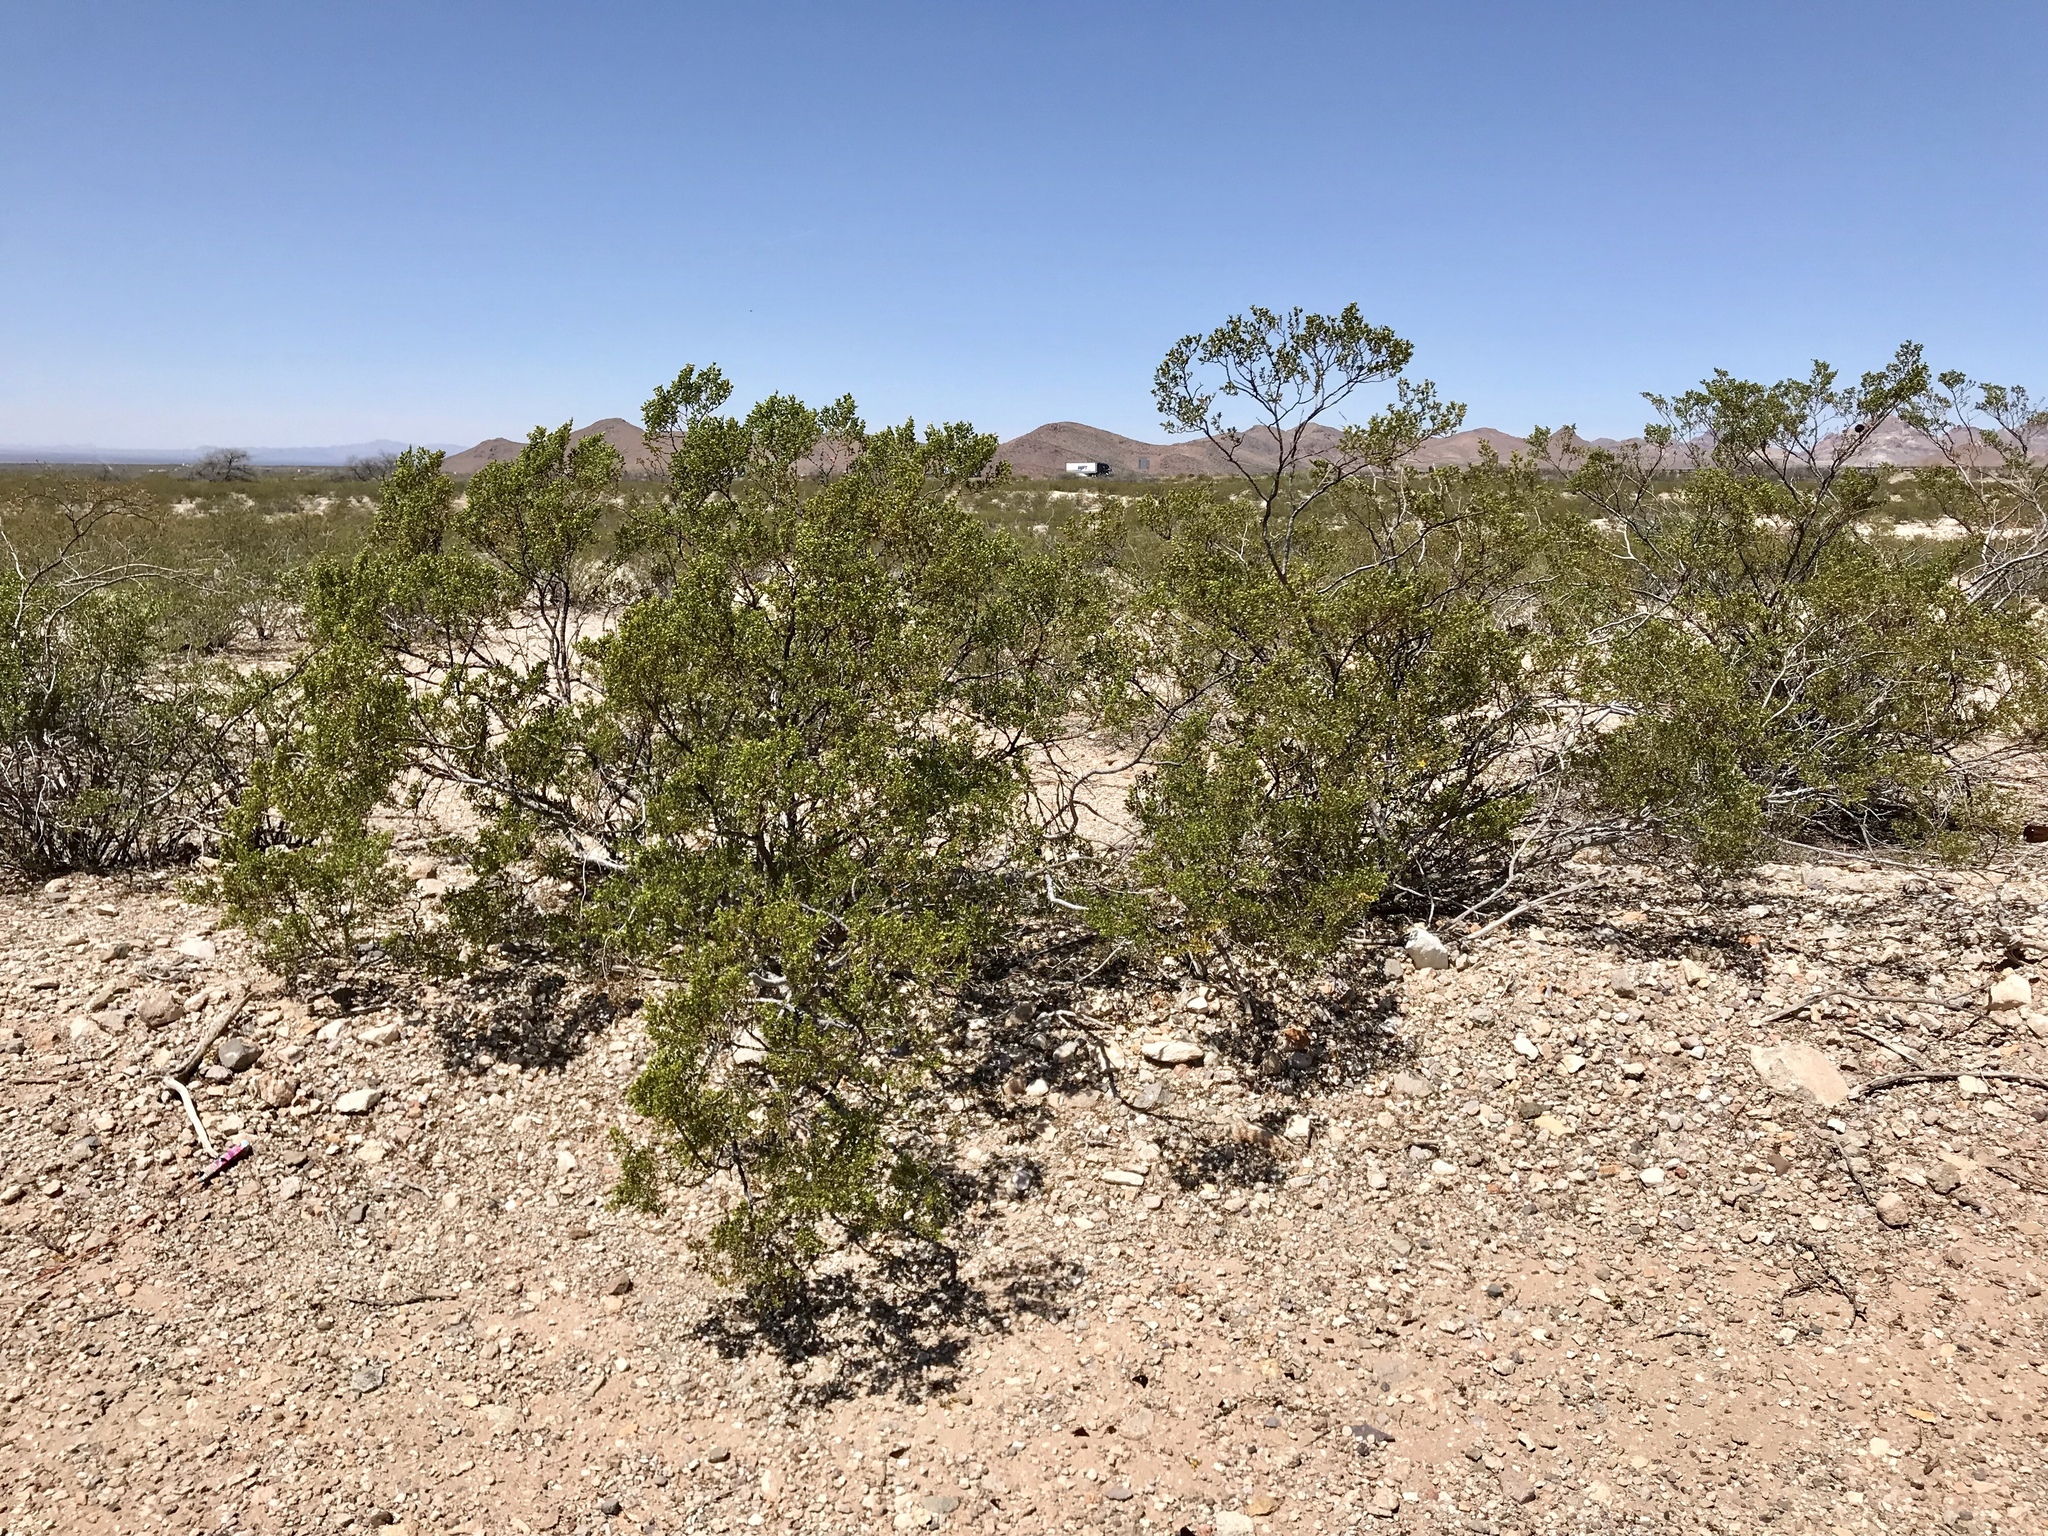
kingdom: Plantae
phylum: Tracheophyta
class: Magnoliopsida
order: Zygophyllales
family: Zygophyllaceae
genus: Larrea
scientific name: Larrea tridentata
